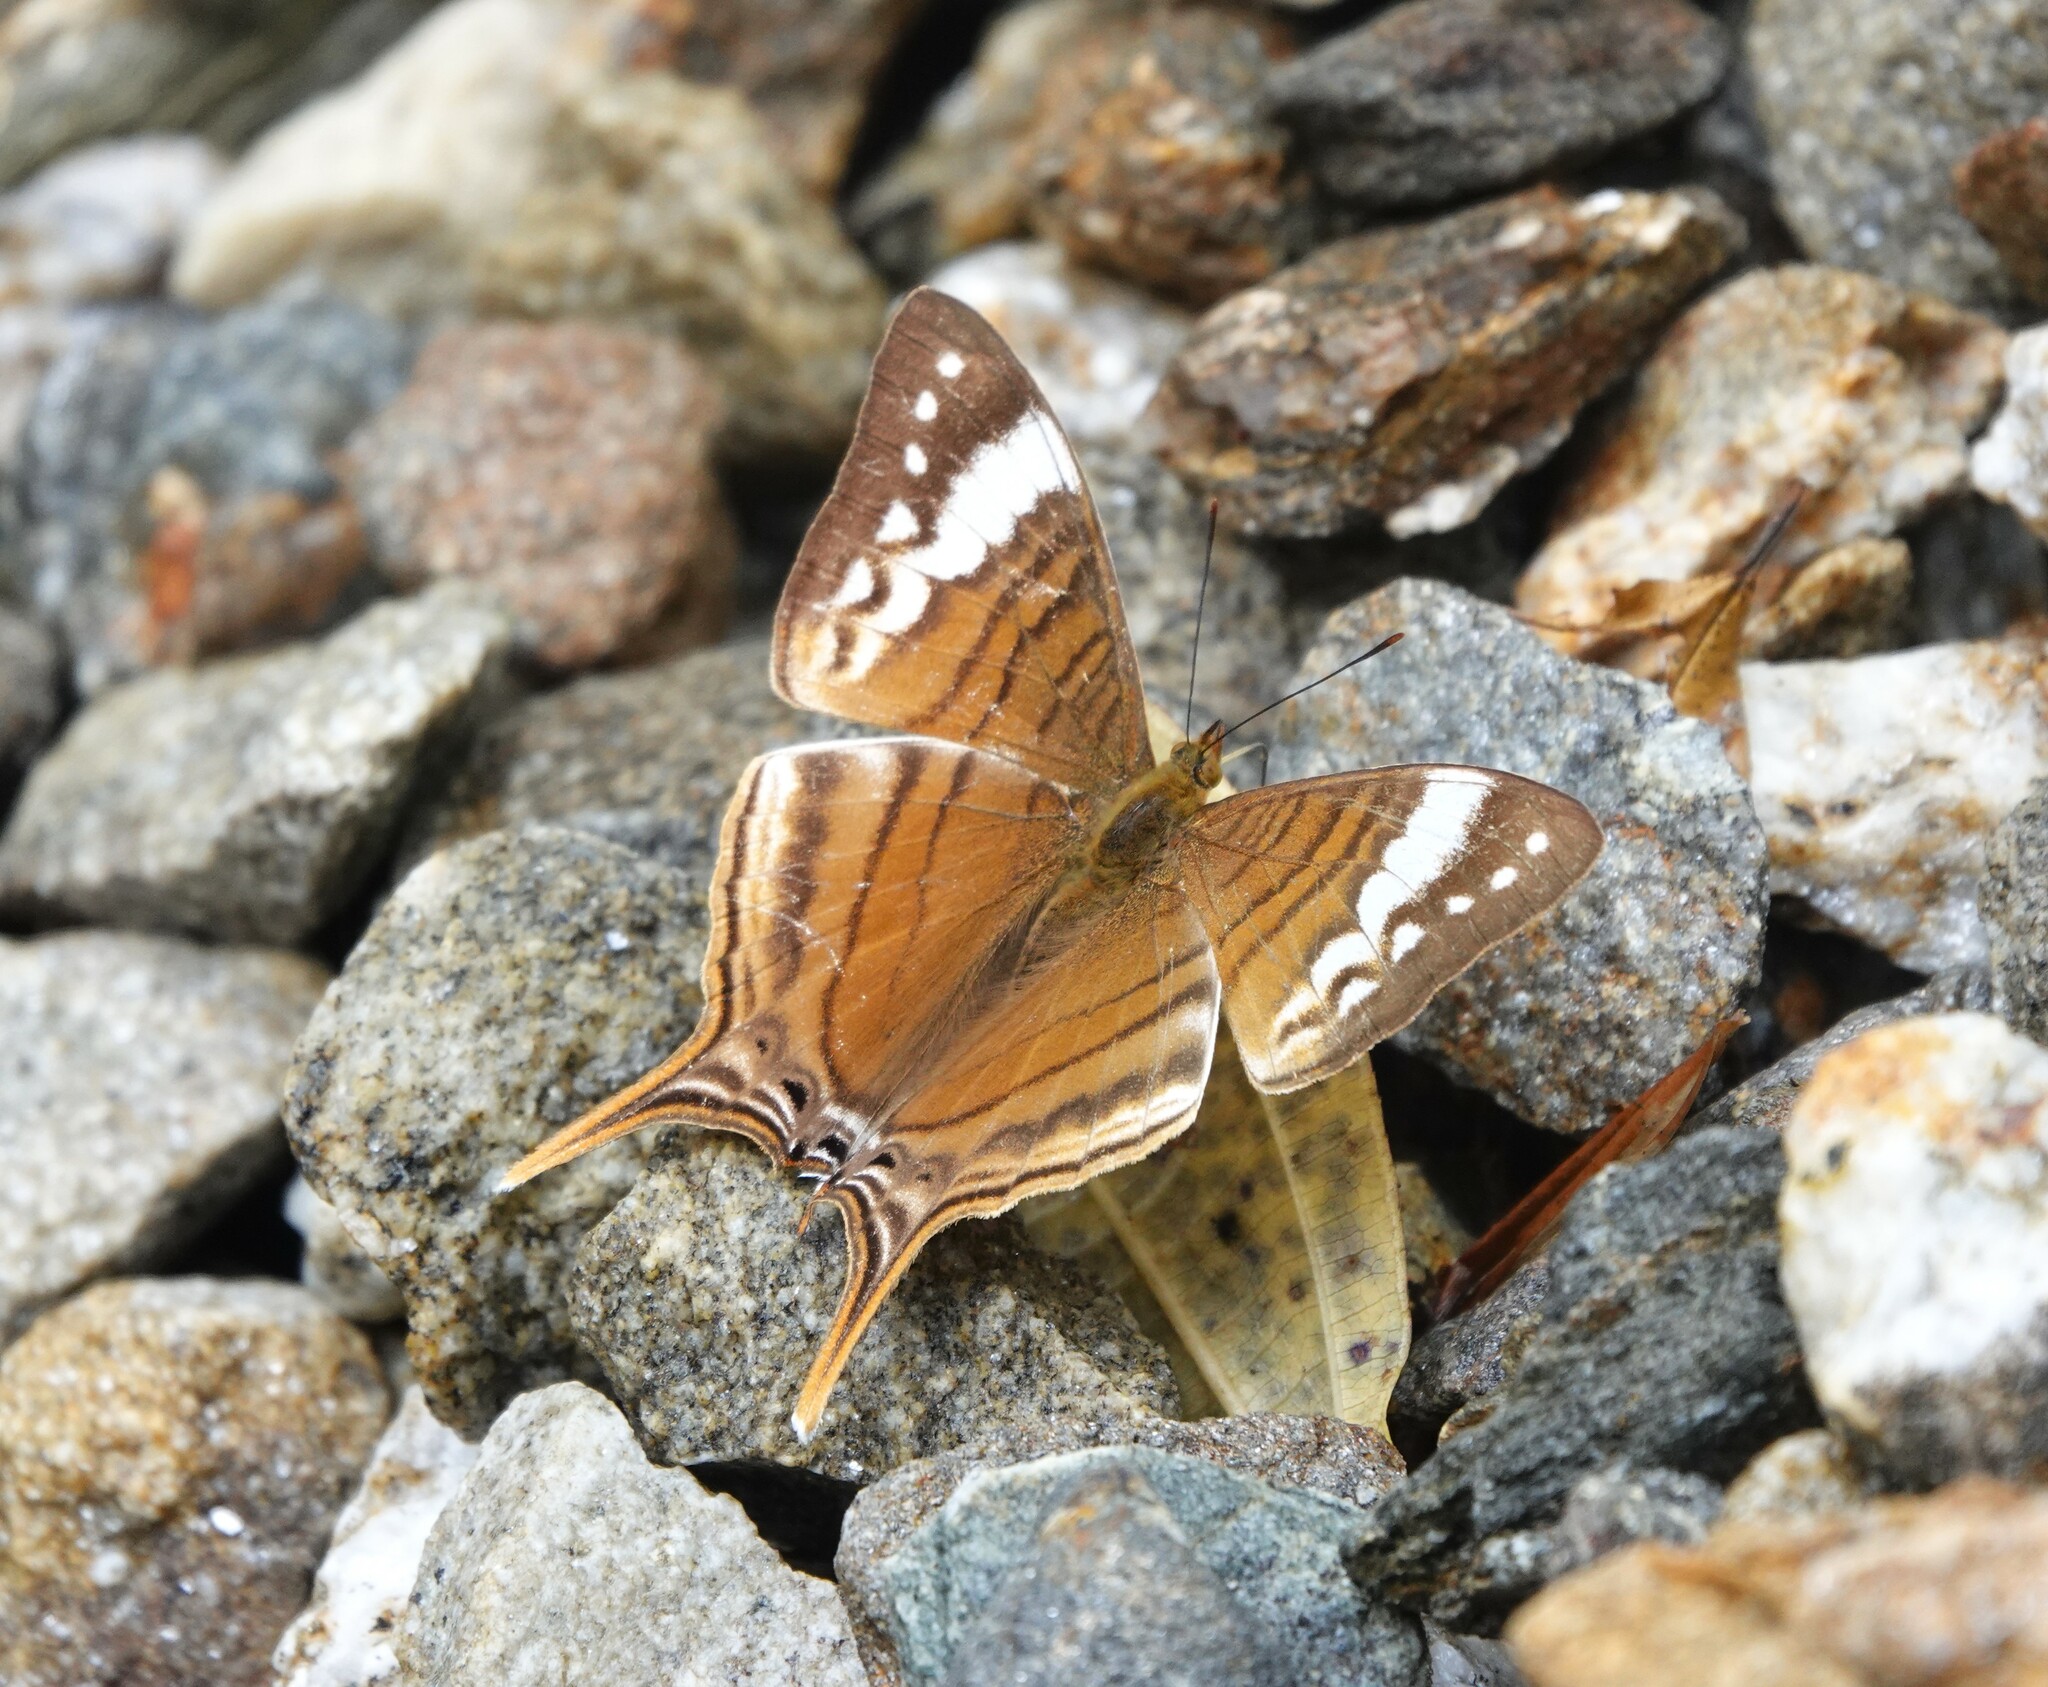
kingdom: Animalia
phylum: Arthropoda
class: Insecta
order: Lepidoptera
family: Nymphalidae
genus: Marpesia
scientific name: Marpesia corinna
